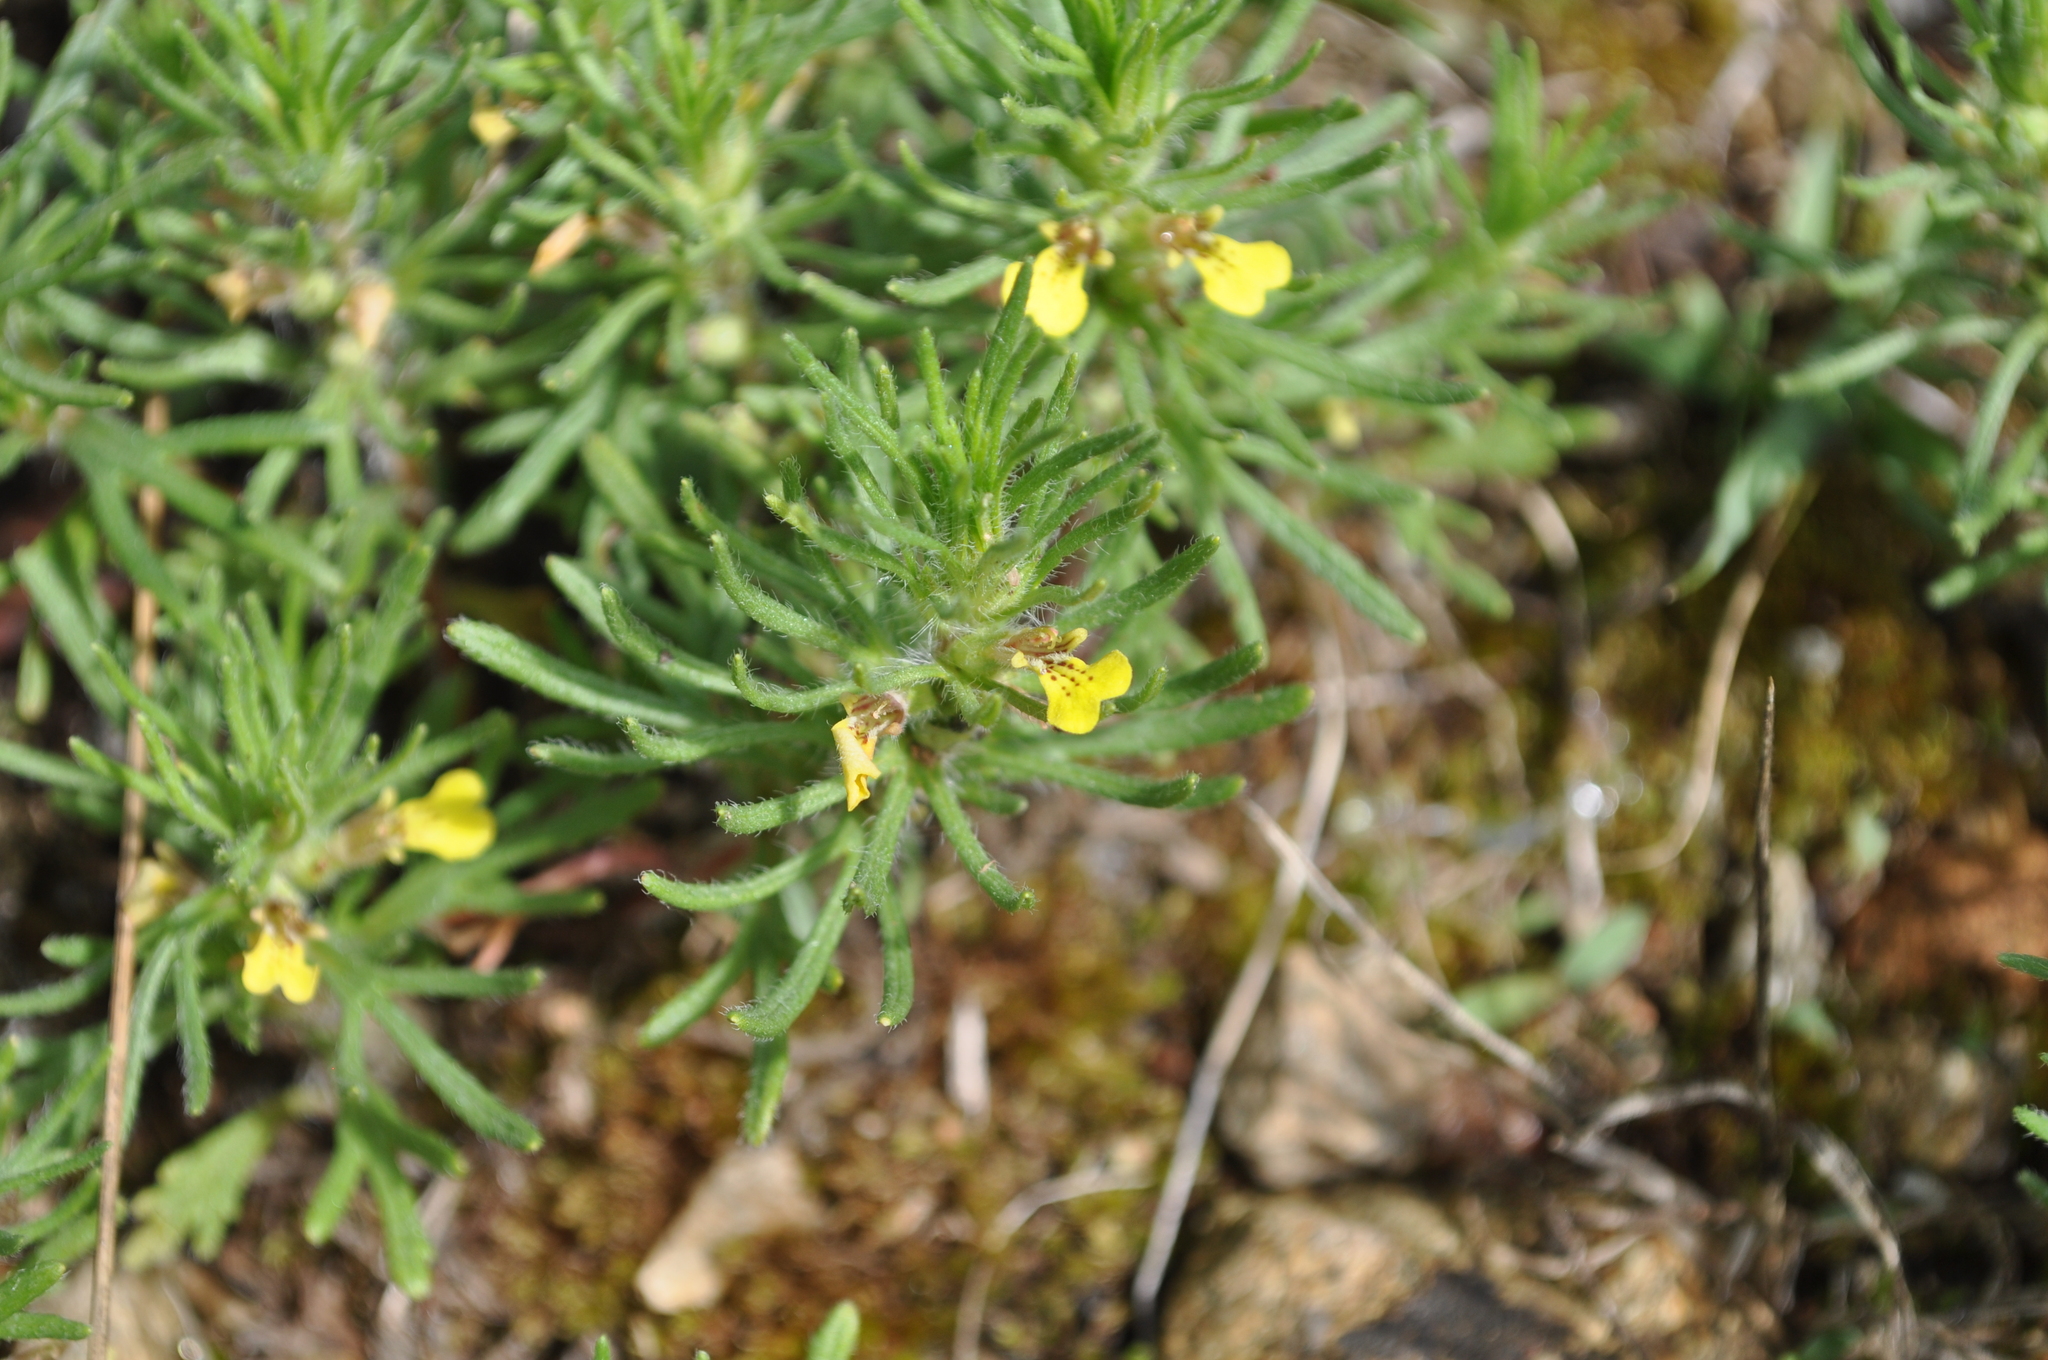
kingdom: Plantae
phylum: Tracheophyta
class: Magnoliopsida
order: Lamiales
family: Lamiaceae
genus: Ajuga
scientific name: Ajuga chamaepitys
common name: Ground-pine
